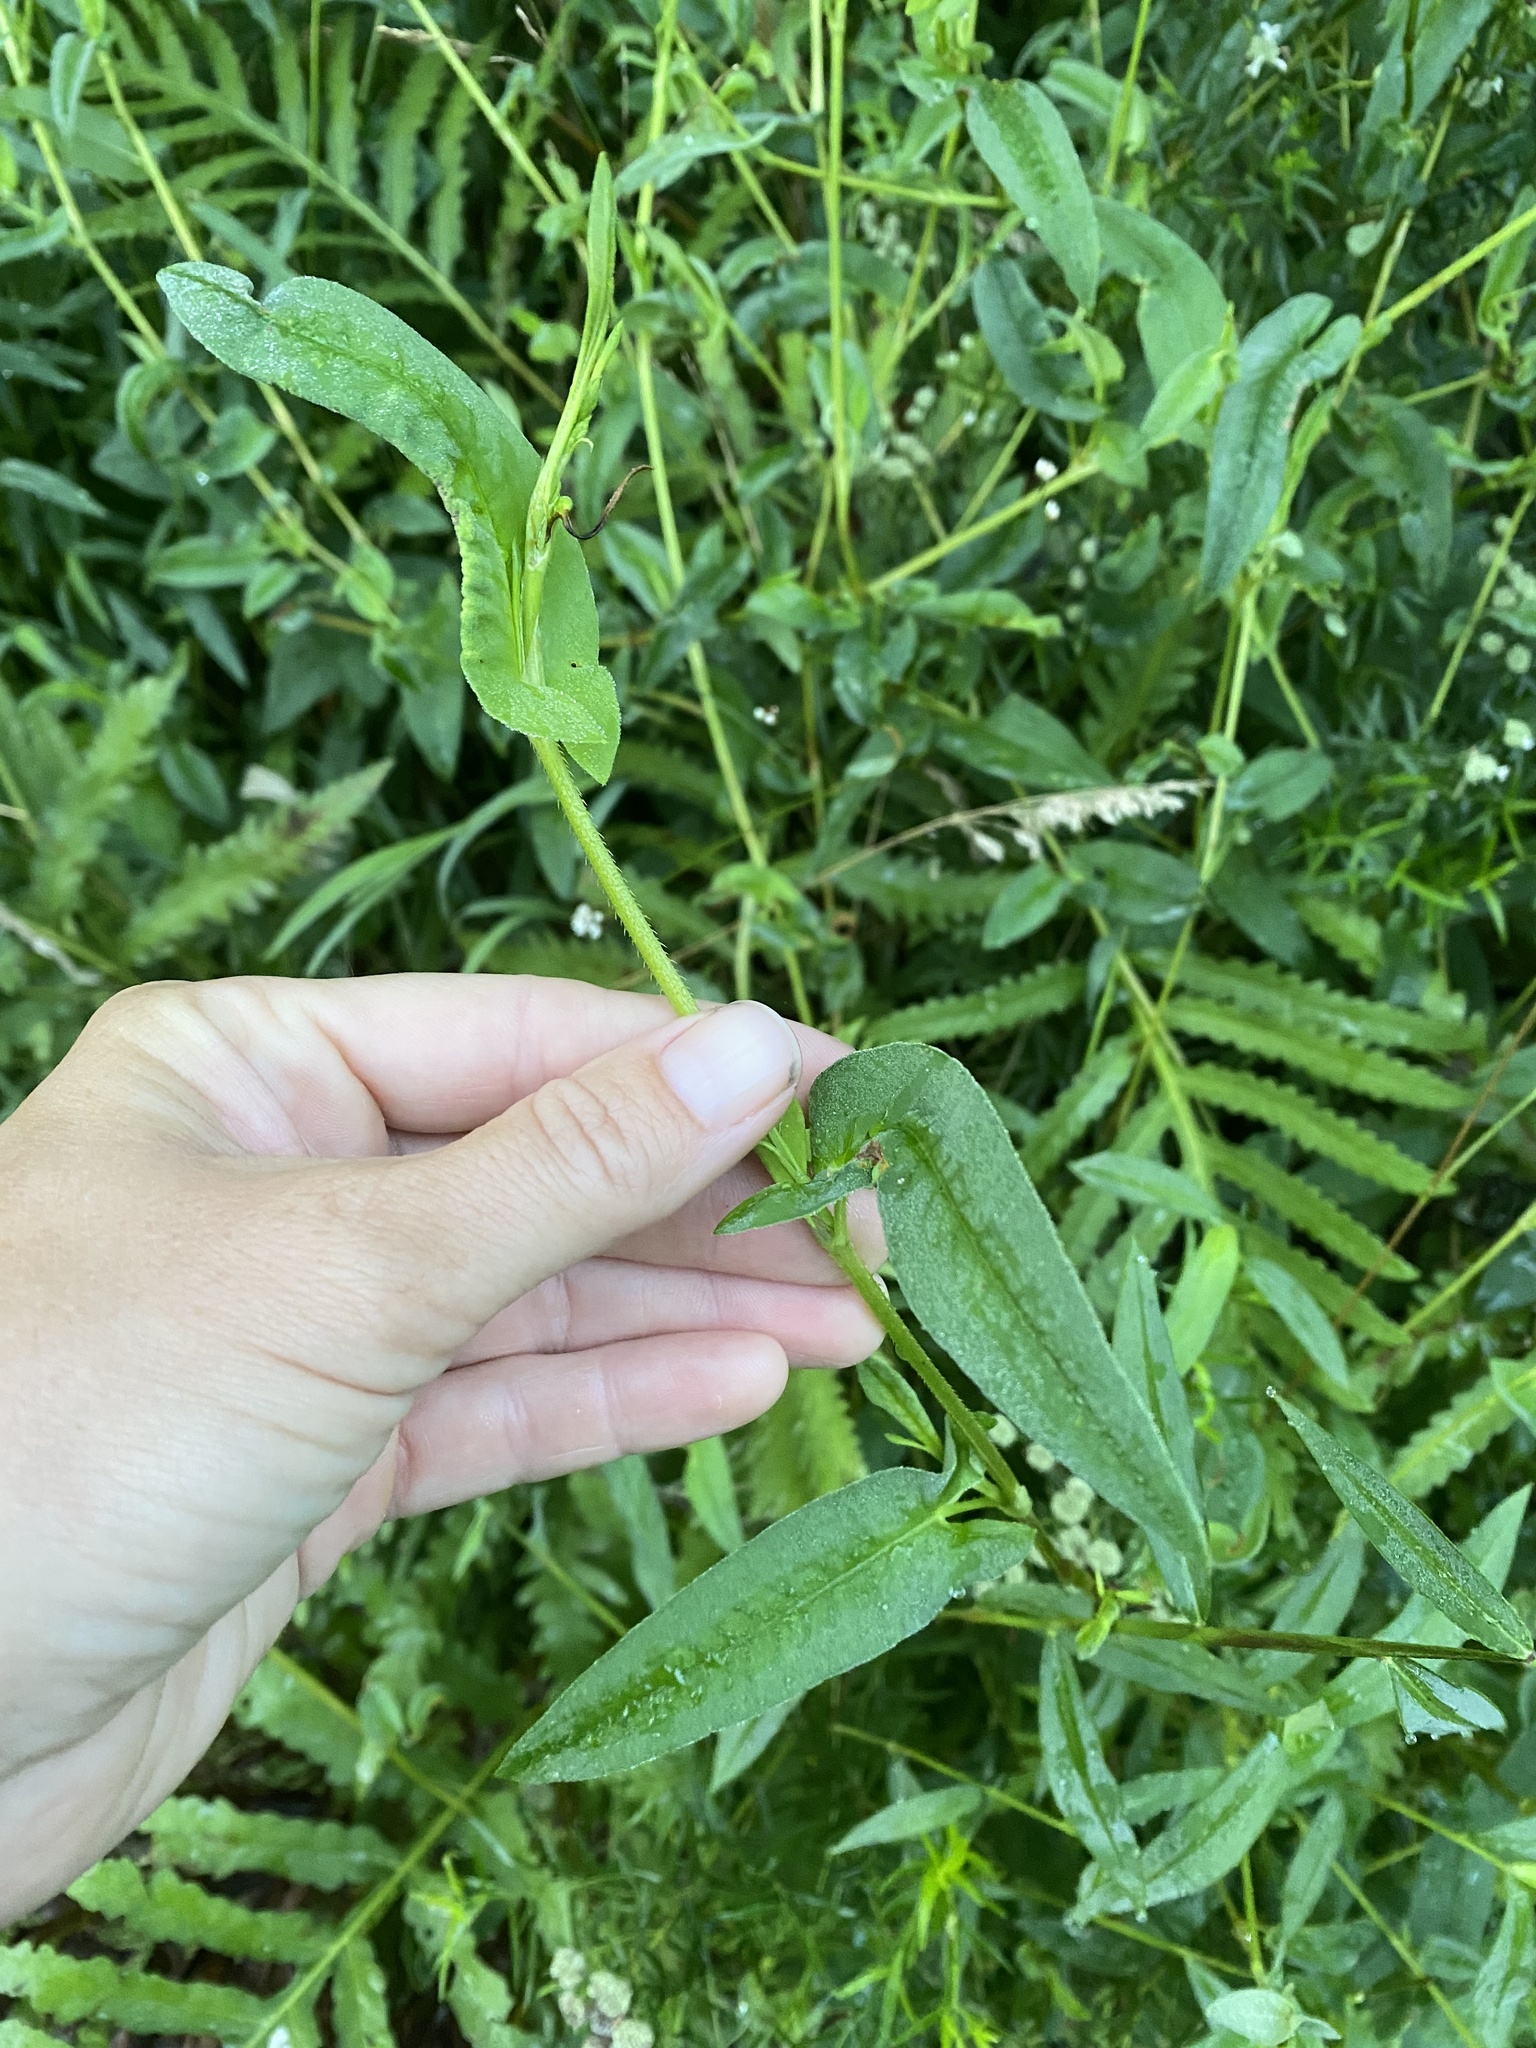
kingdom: Plantae
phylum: Tracheophyta
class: Magnoliopsida
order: Caryophyllales
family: Polygonaceae
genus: Persicaria
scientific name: Persicaria sagittata
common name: American tearthumb
